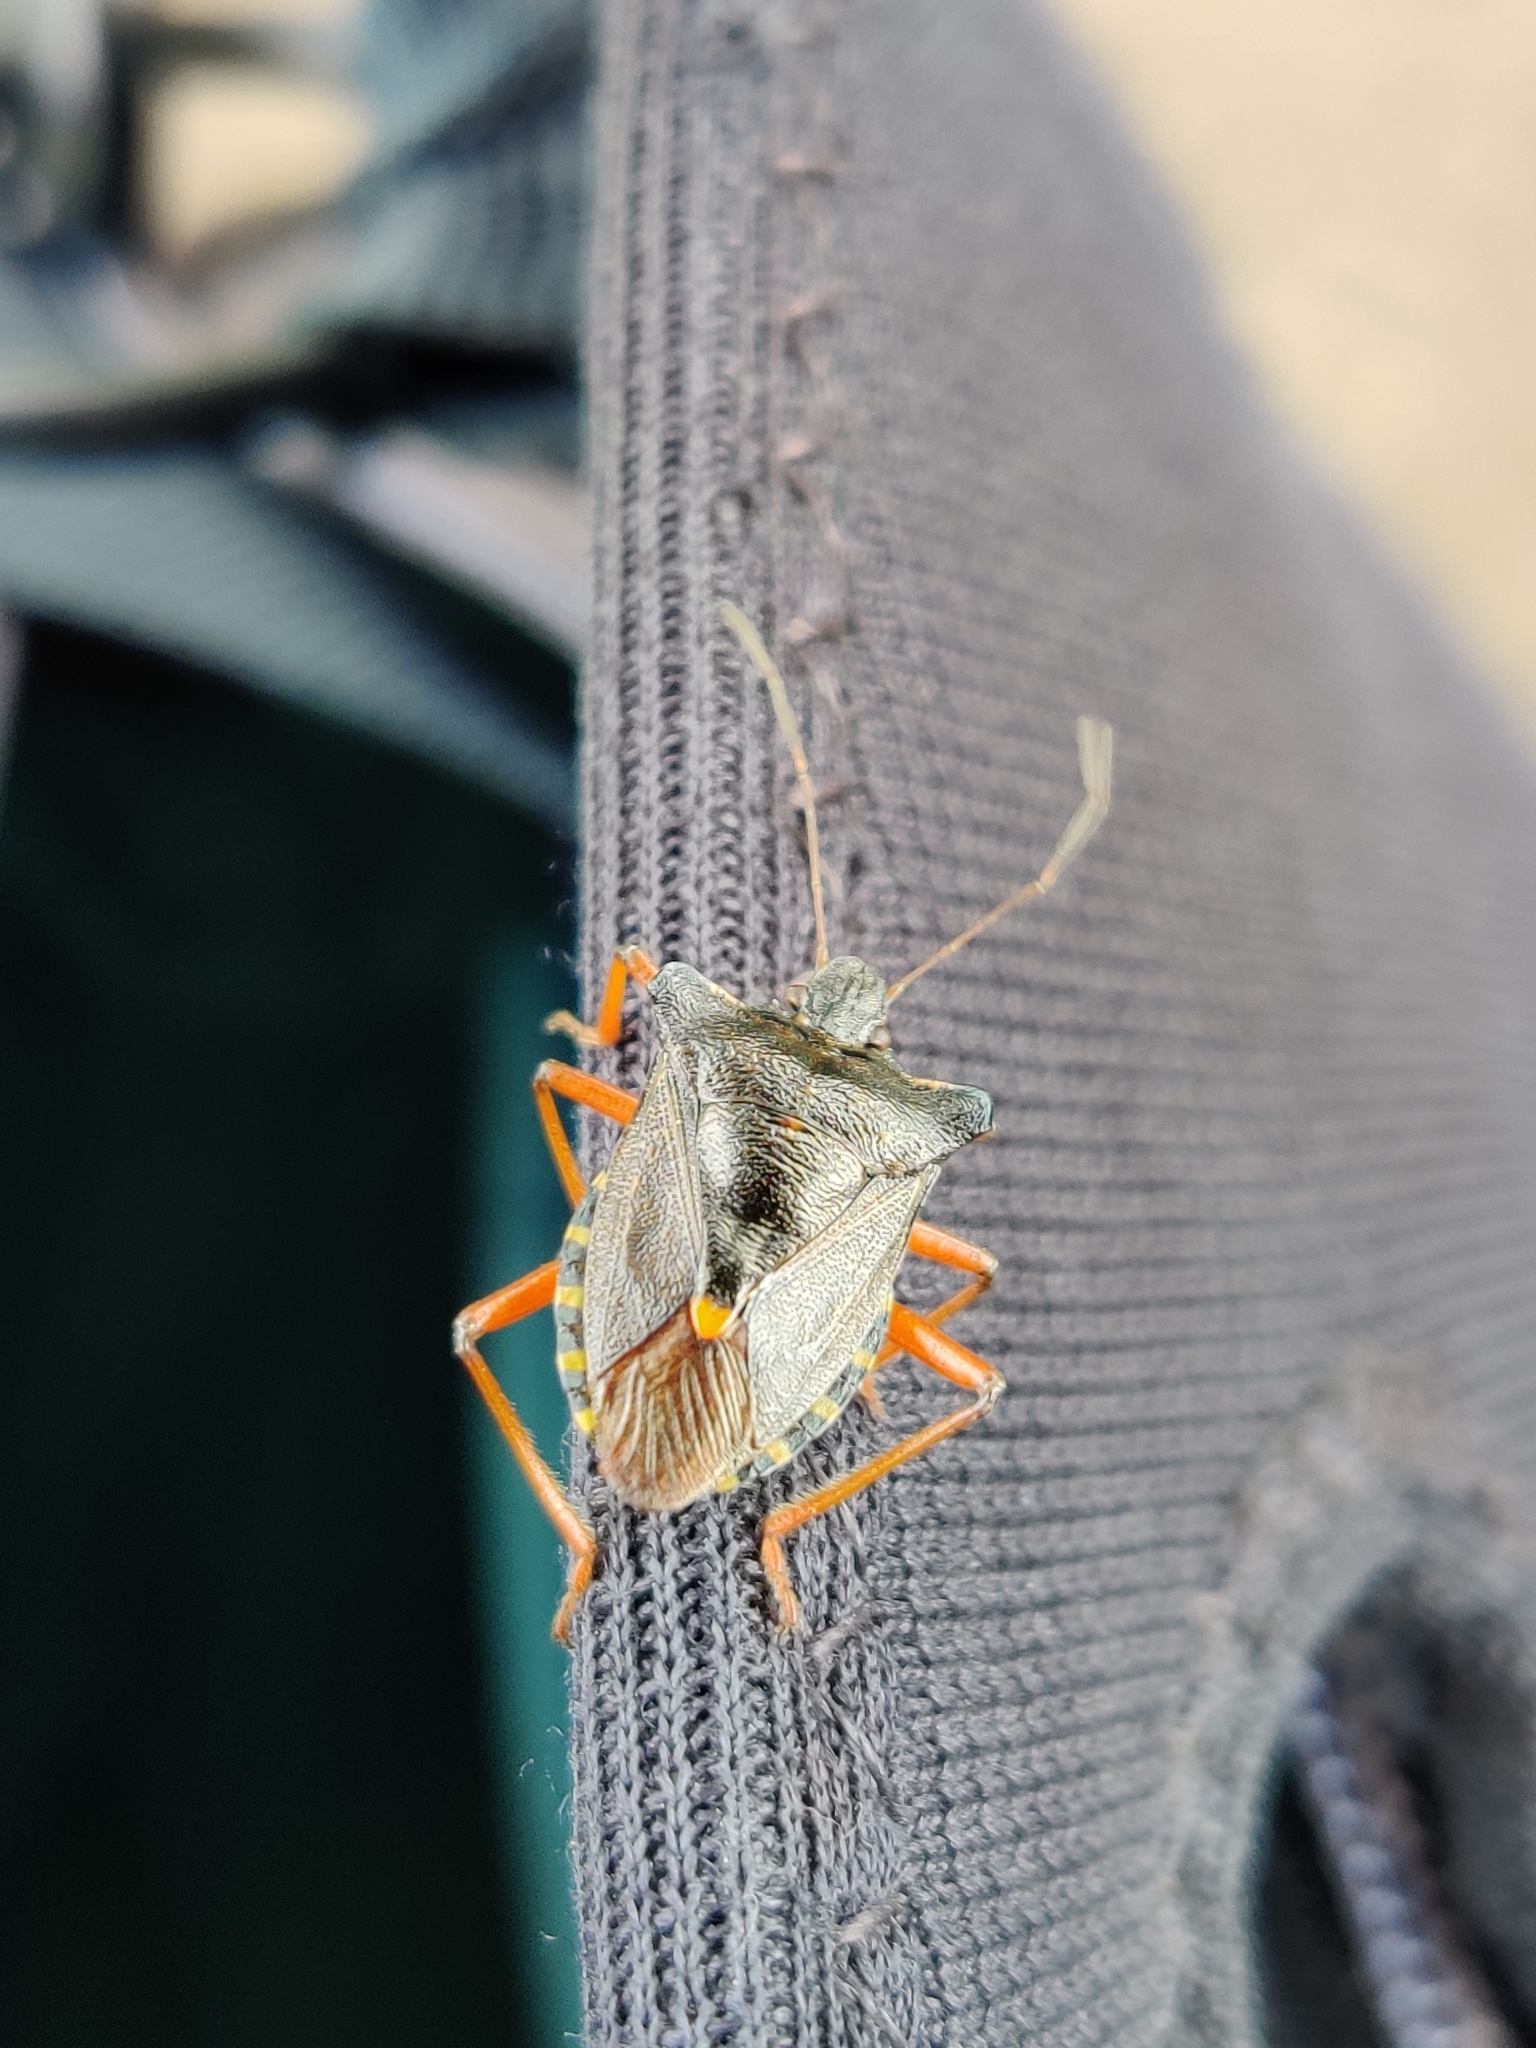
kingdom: Animalia
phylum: Arthropoda
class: Insecta
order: Hemiptera
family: Pentatomidae
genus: Pentatoma
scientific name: Pentatoma rufipes
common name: Forest bug
